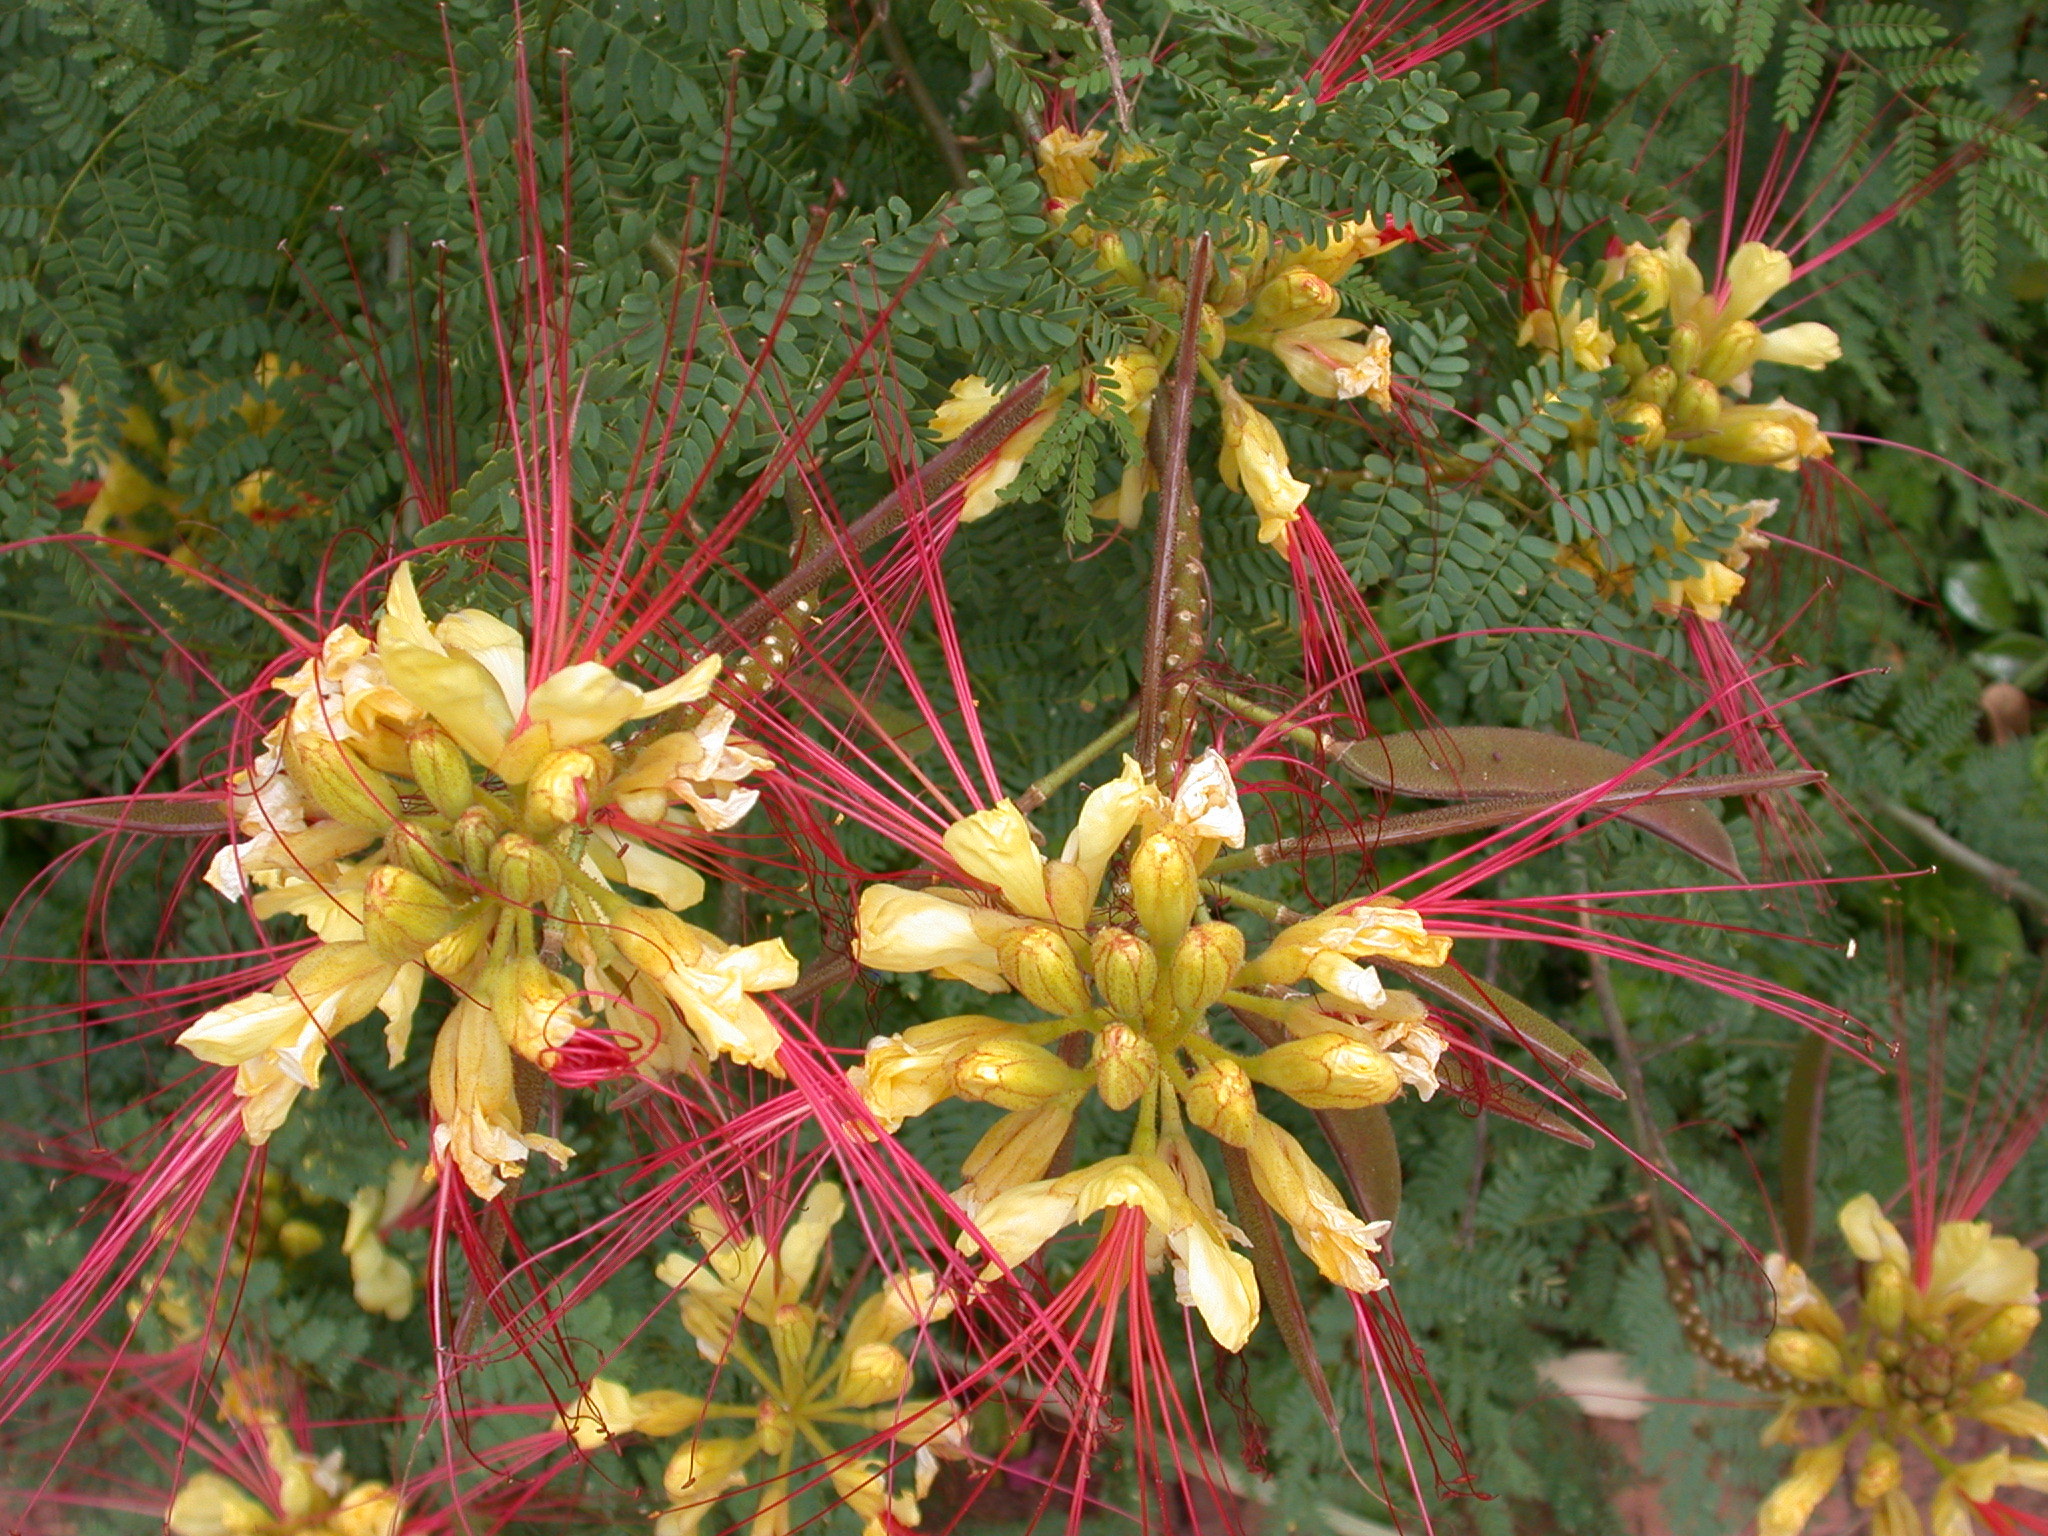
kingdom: Plantae
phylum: Tracheophyta
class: Magnoliopsida
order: Fabales
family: Fabaceae
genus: Erythrostemon
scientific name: Erythrostemon gilliesii
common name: Bird-of-paradise shrub
